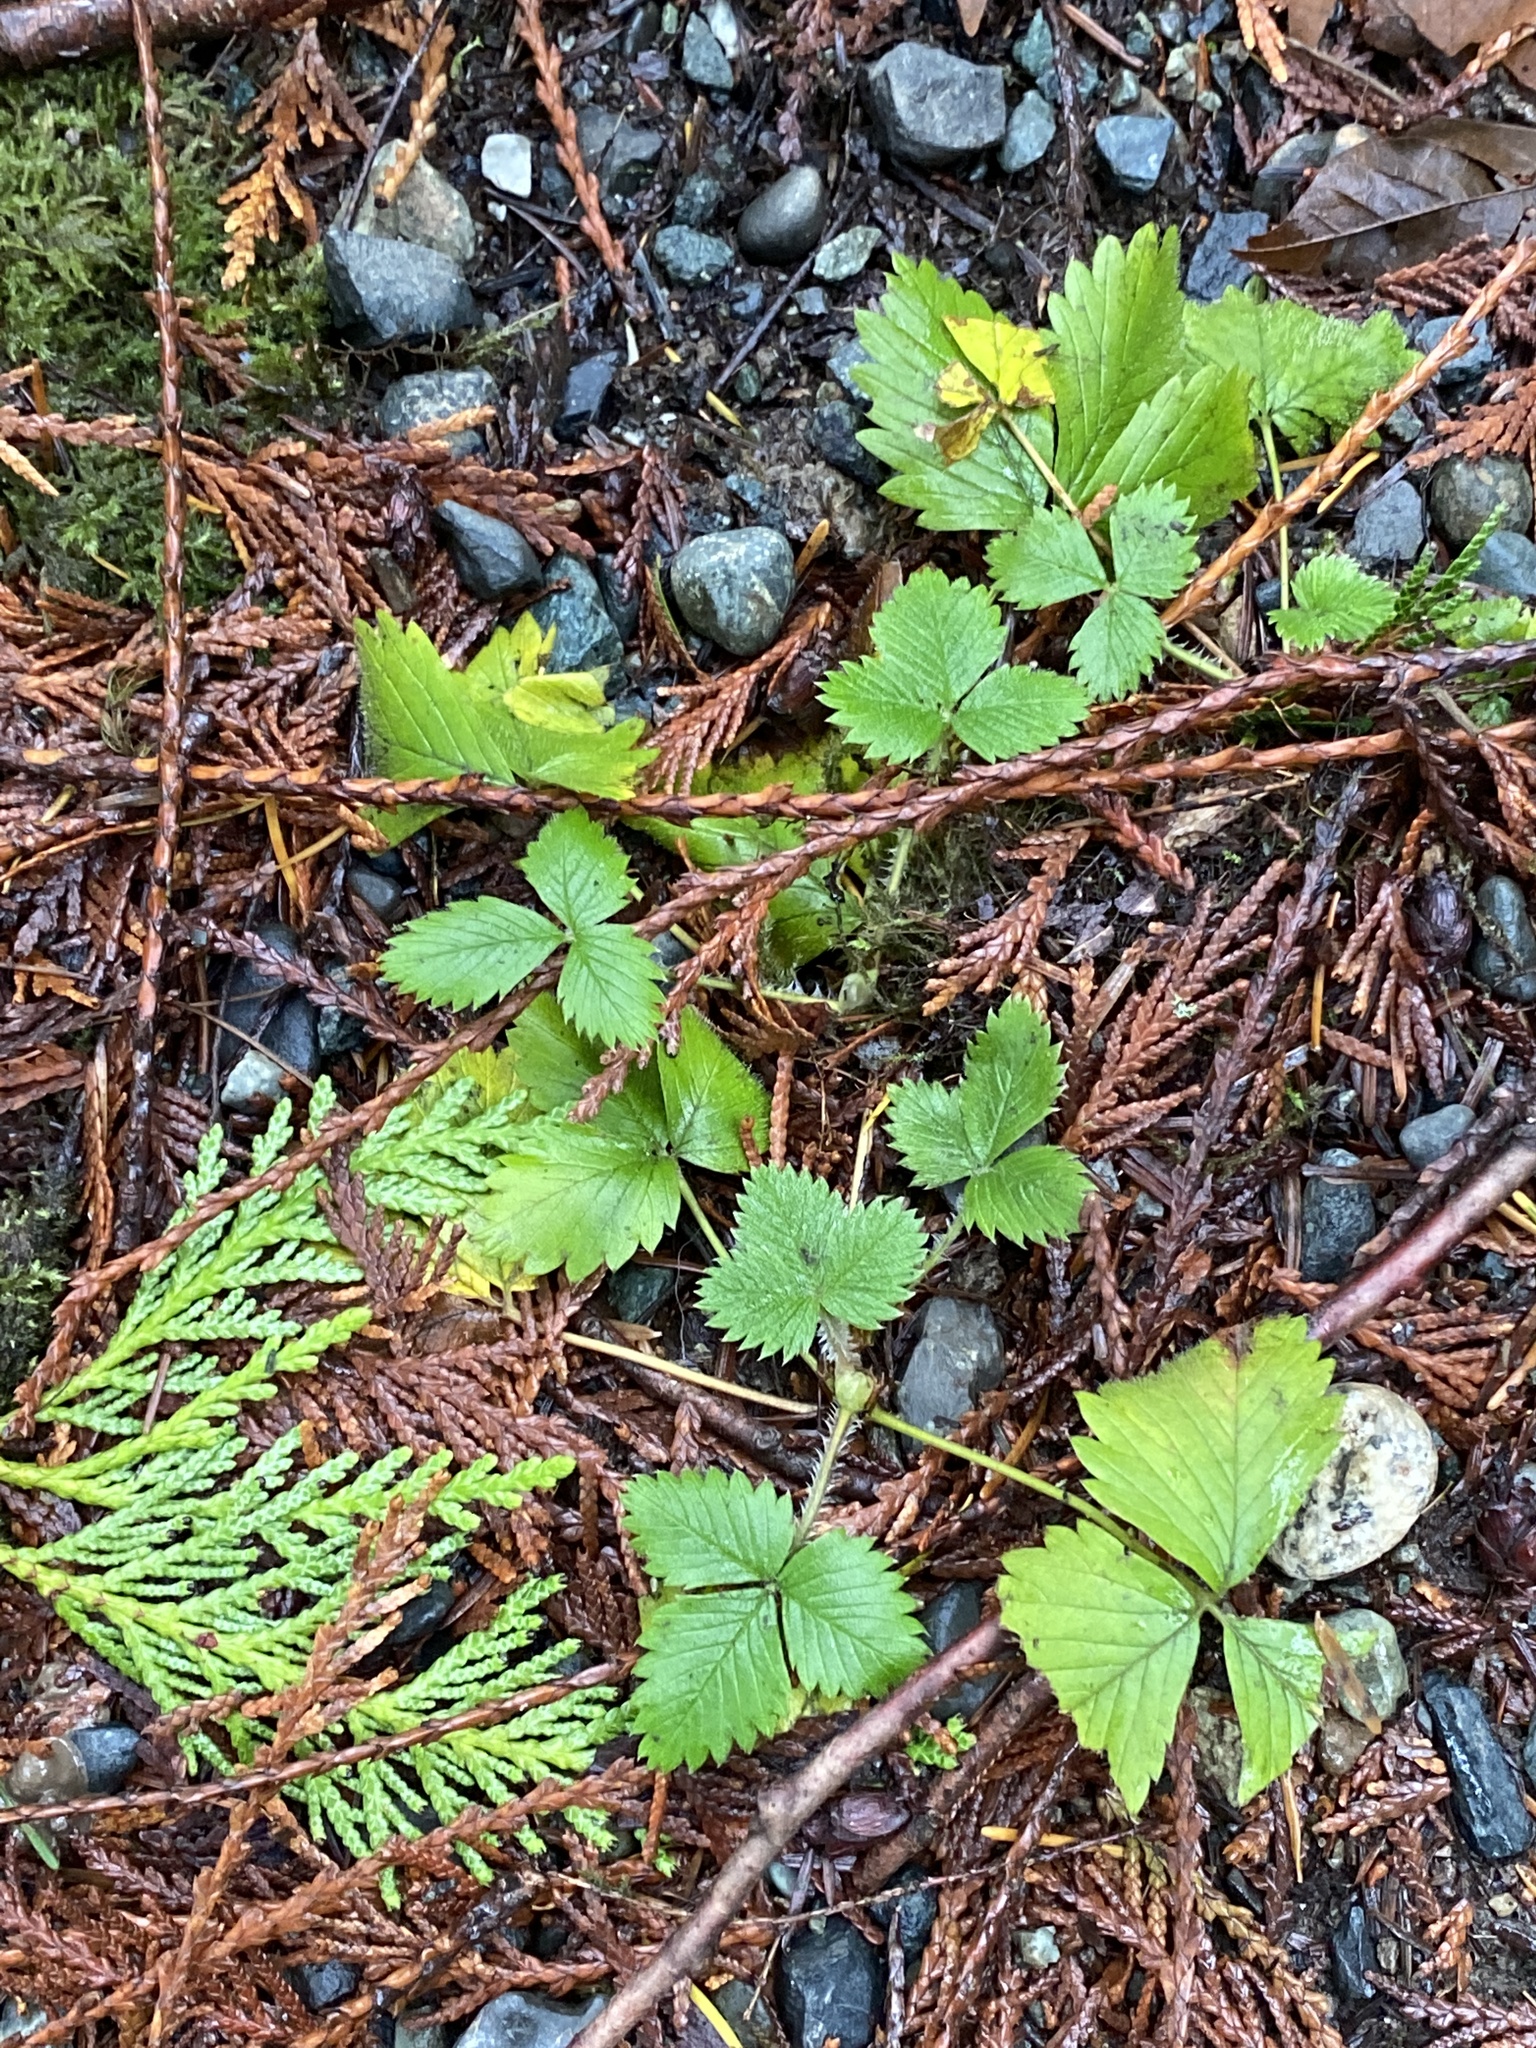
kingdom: Plantae
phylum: Tracheophyta
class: Magnoliopsida
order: Rosales
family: Rosaceae
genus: Fragaria
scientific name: Fragaria vesca
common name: Wild strawberry
